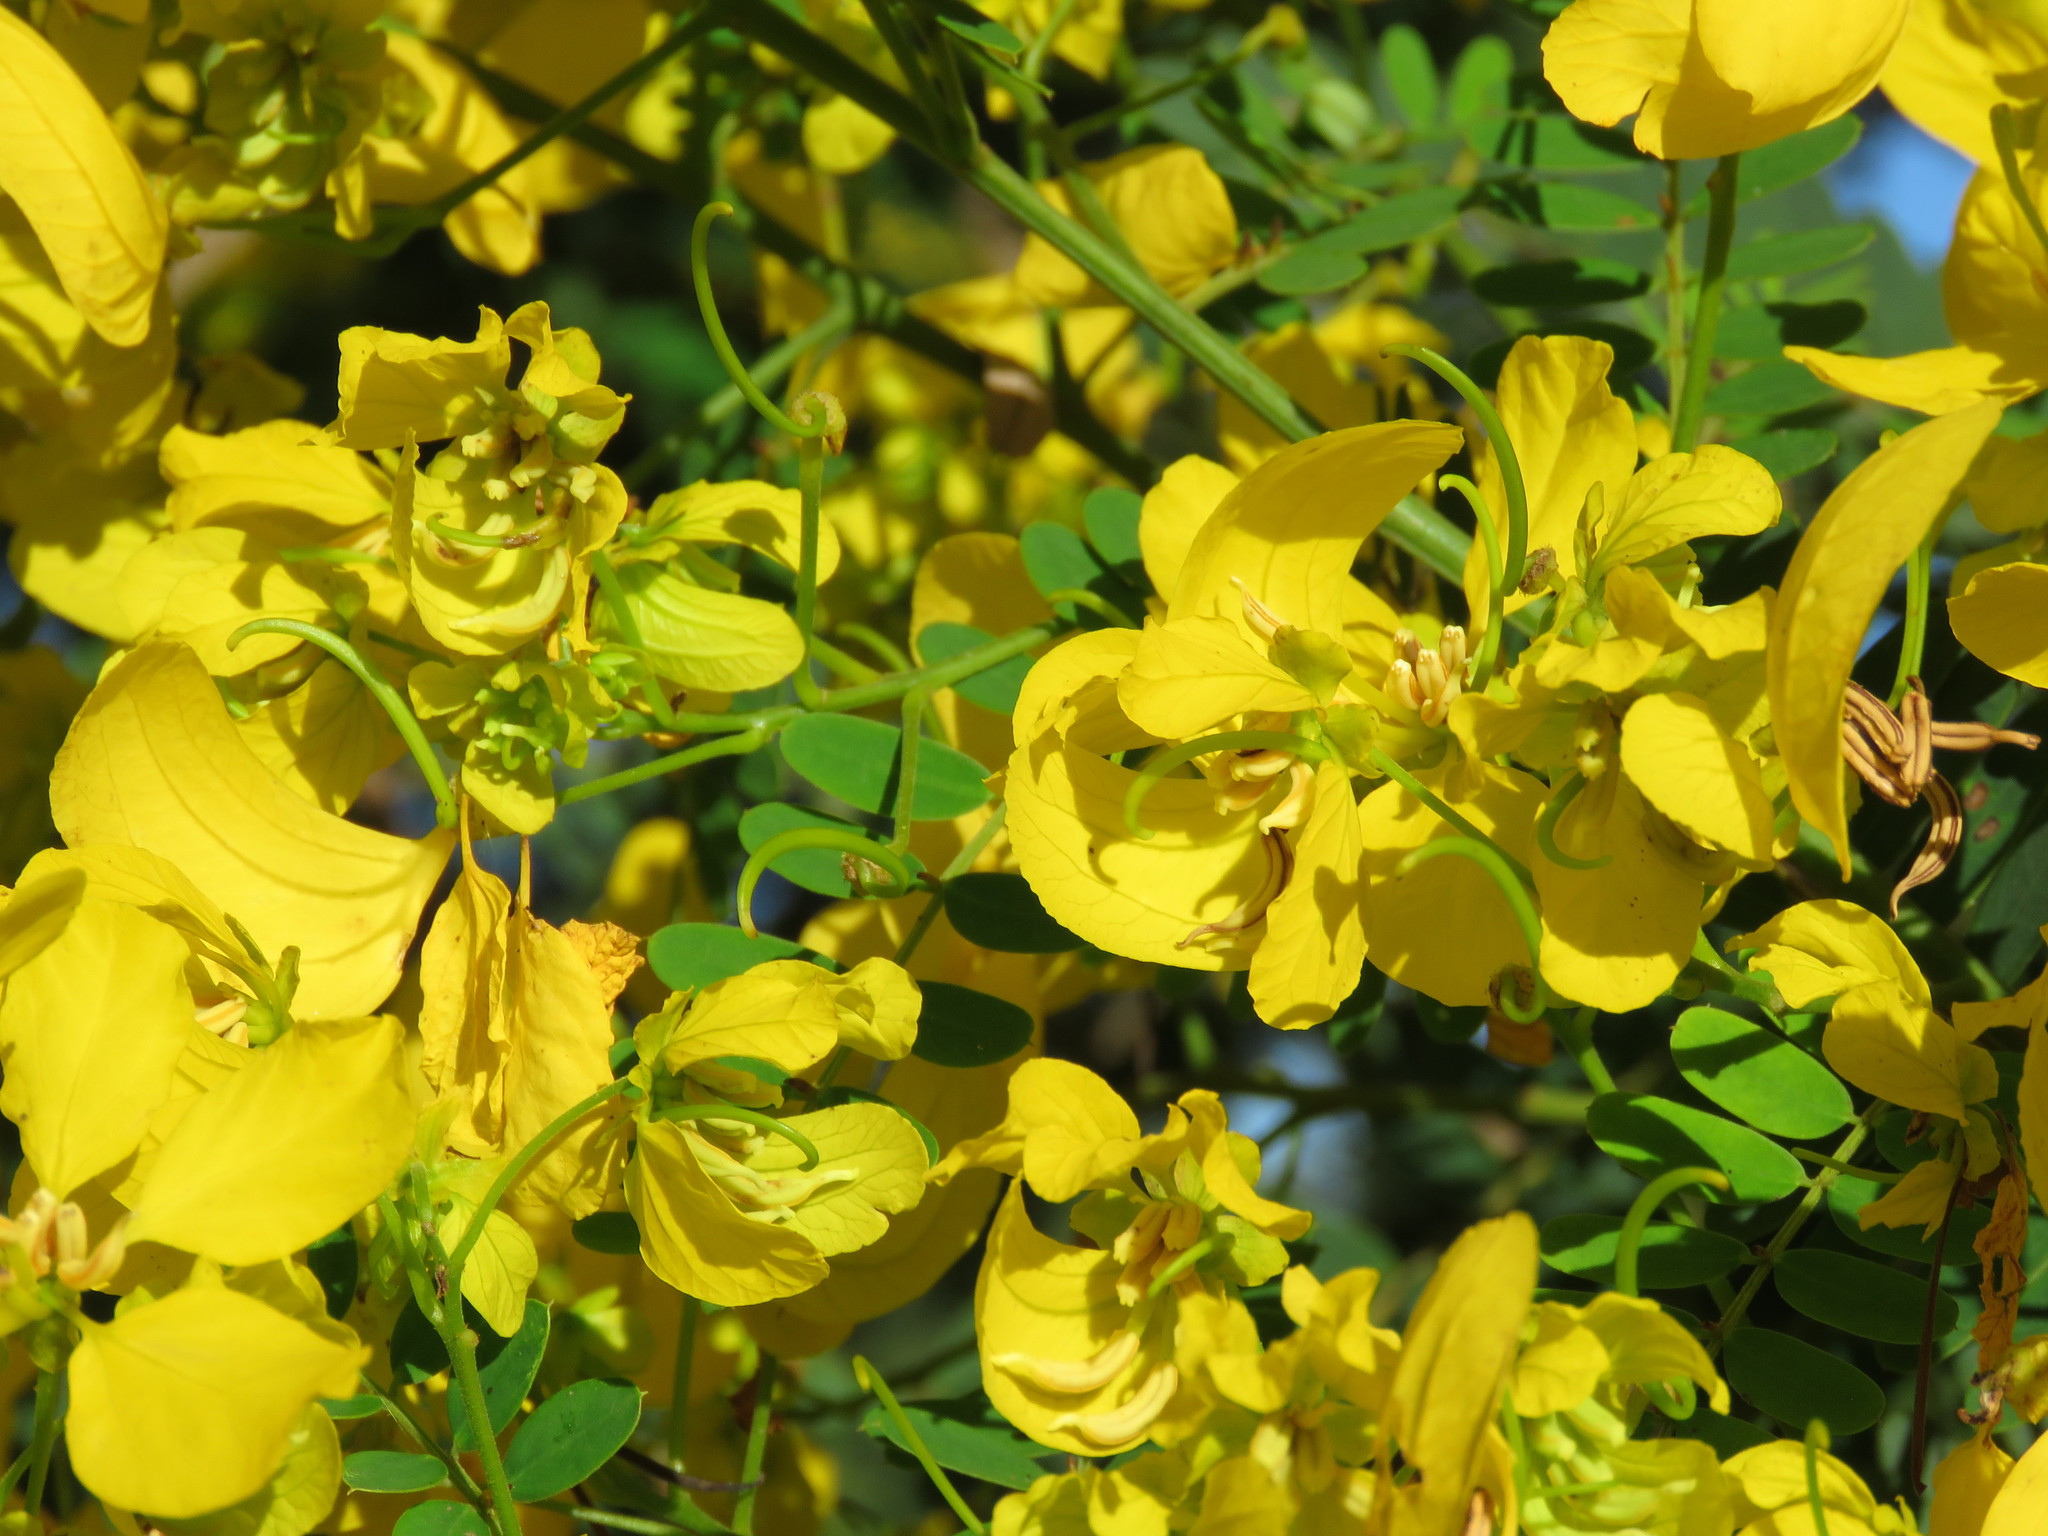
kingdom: Plantae
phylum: Tracheophyta
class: Magnoliopsida
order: Fabales
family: Fabaceae
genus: Senna
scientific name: Senna spectabilis
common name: Casia amarilla
